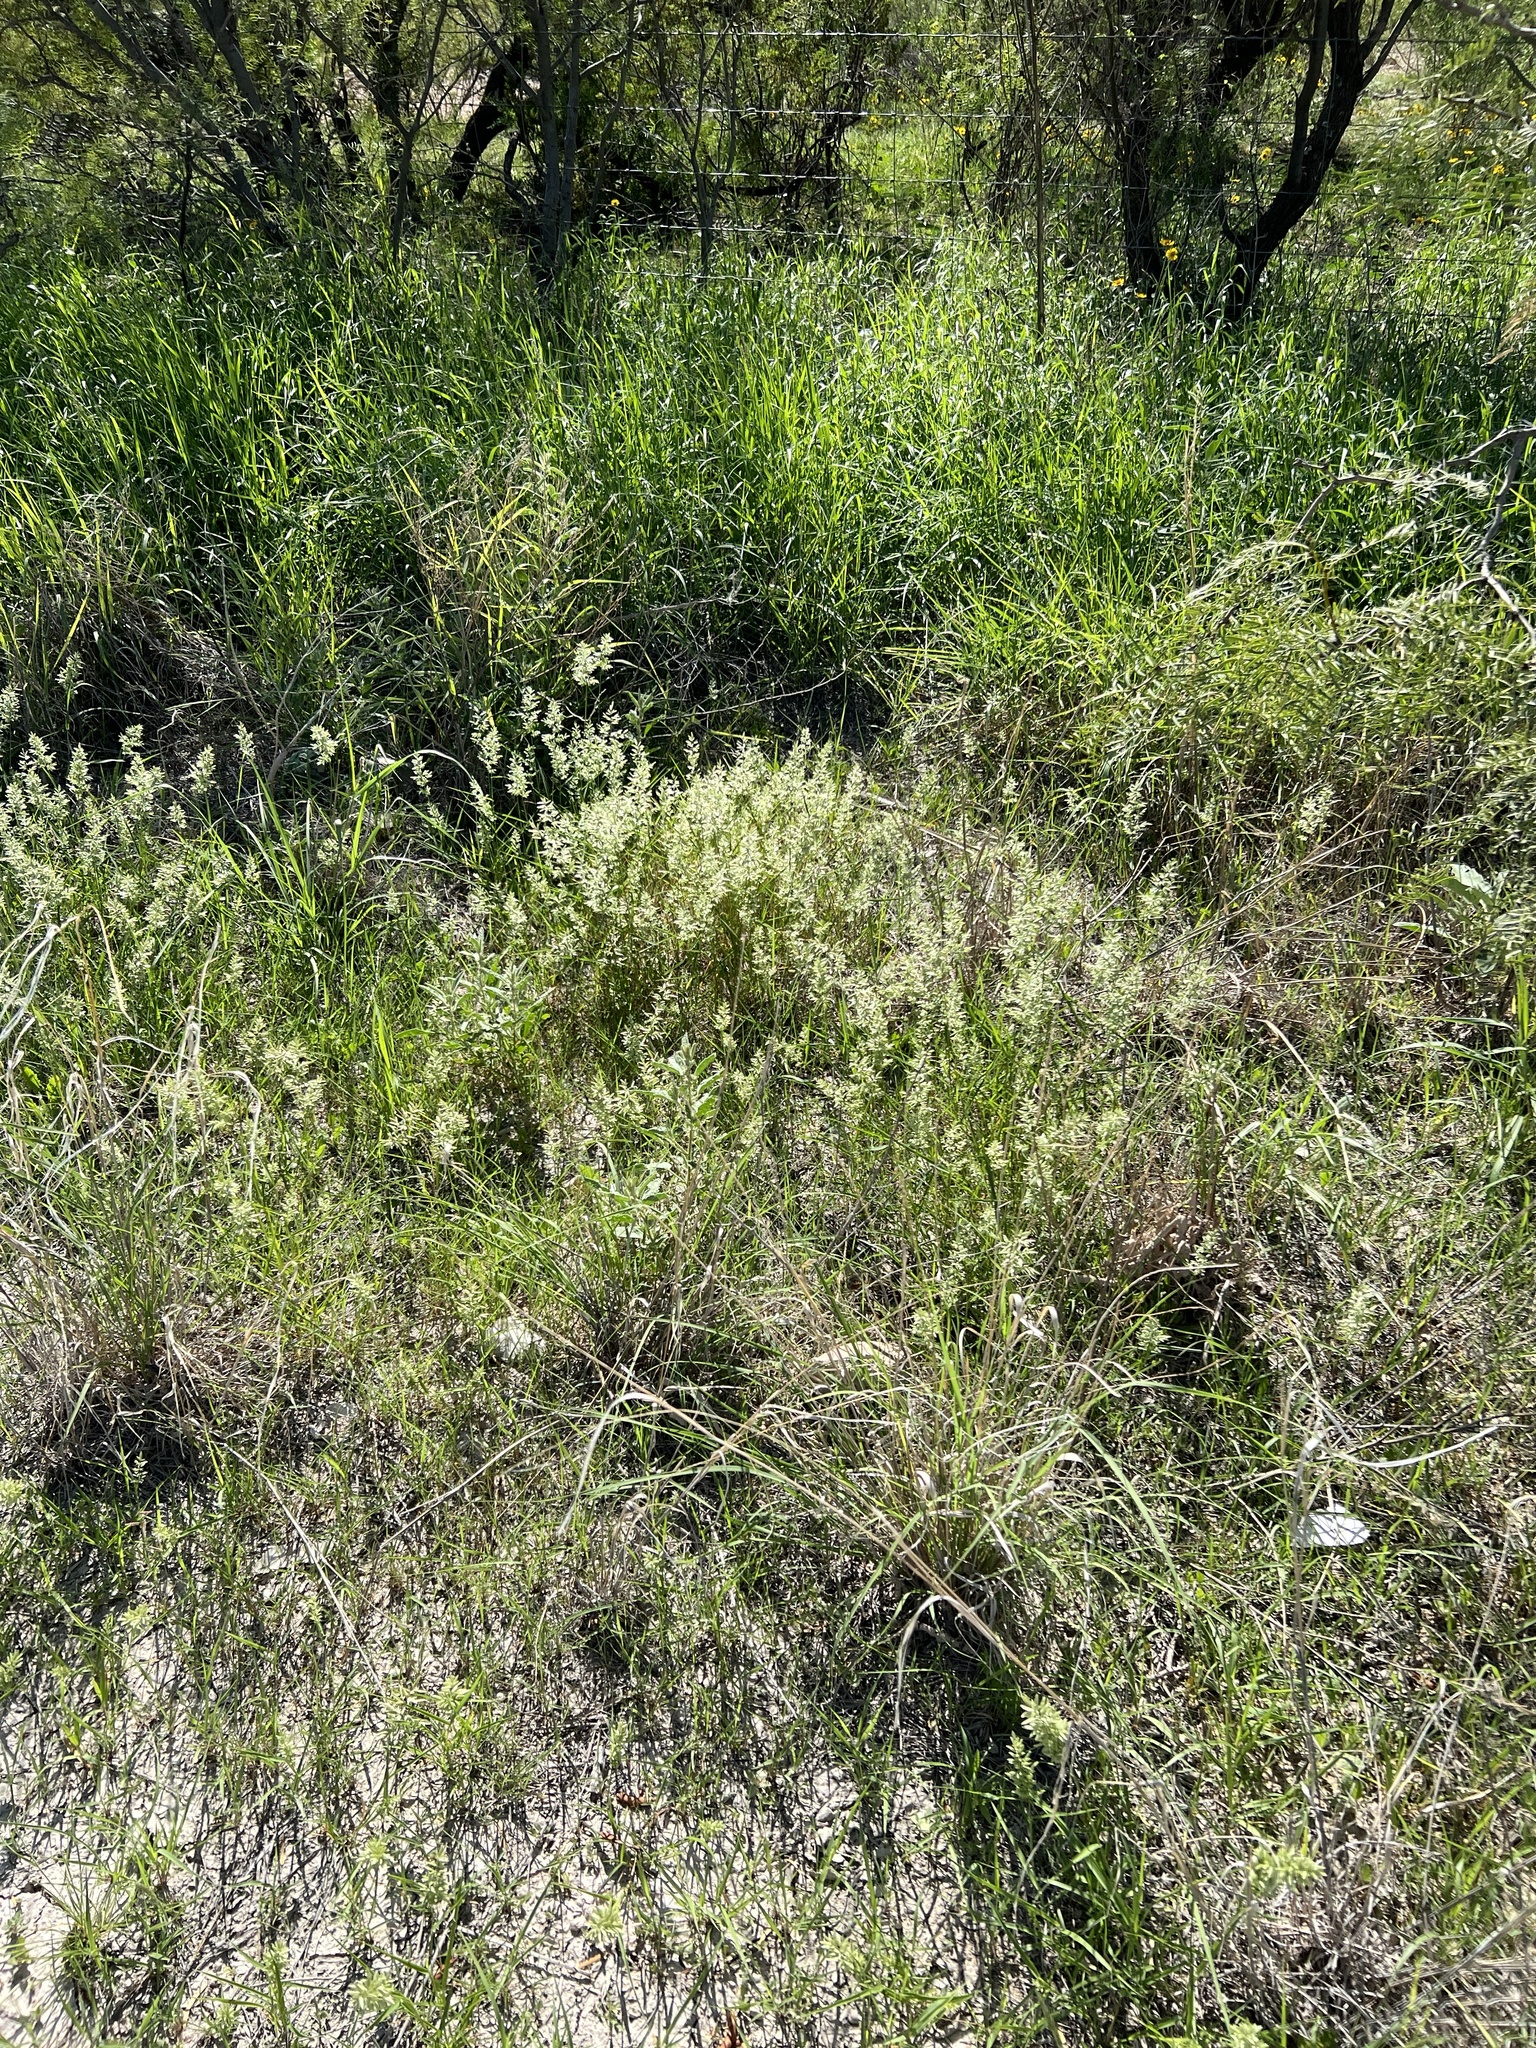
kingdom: Plantae
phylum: Tracheophyta
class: Liliopsida
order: Poales
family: Poaceae
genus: Eragrostis
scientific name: Eragrostis cilianensis
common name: Stinkgrass
